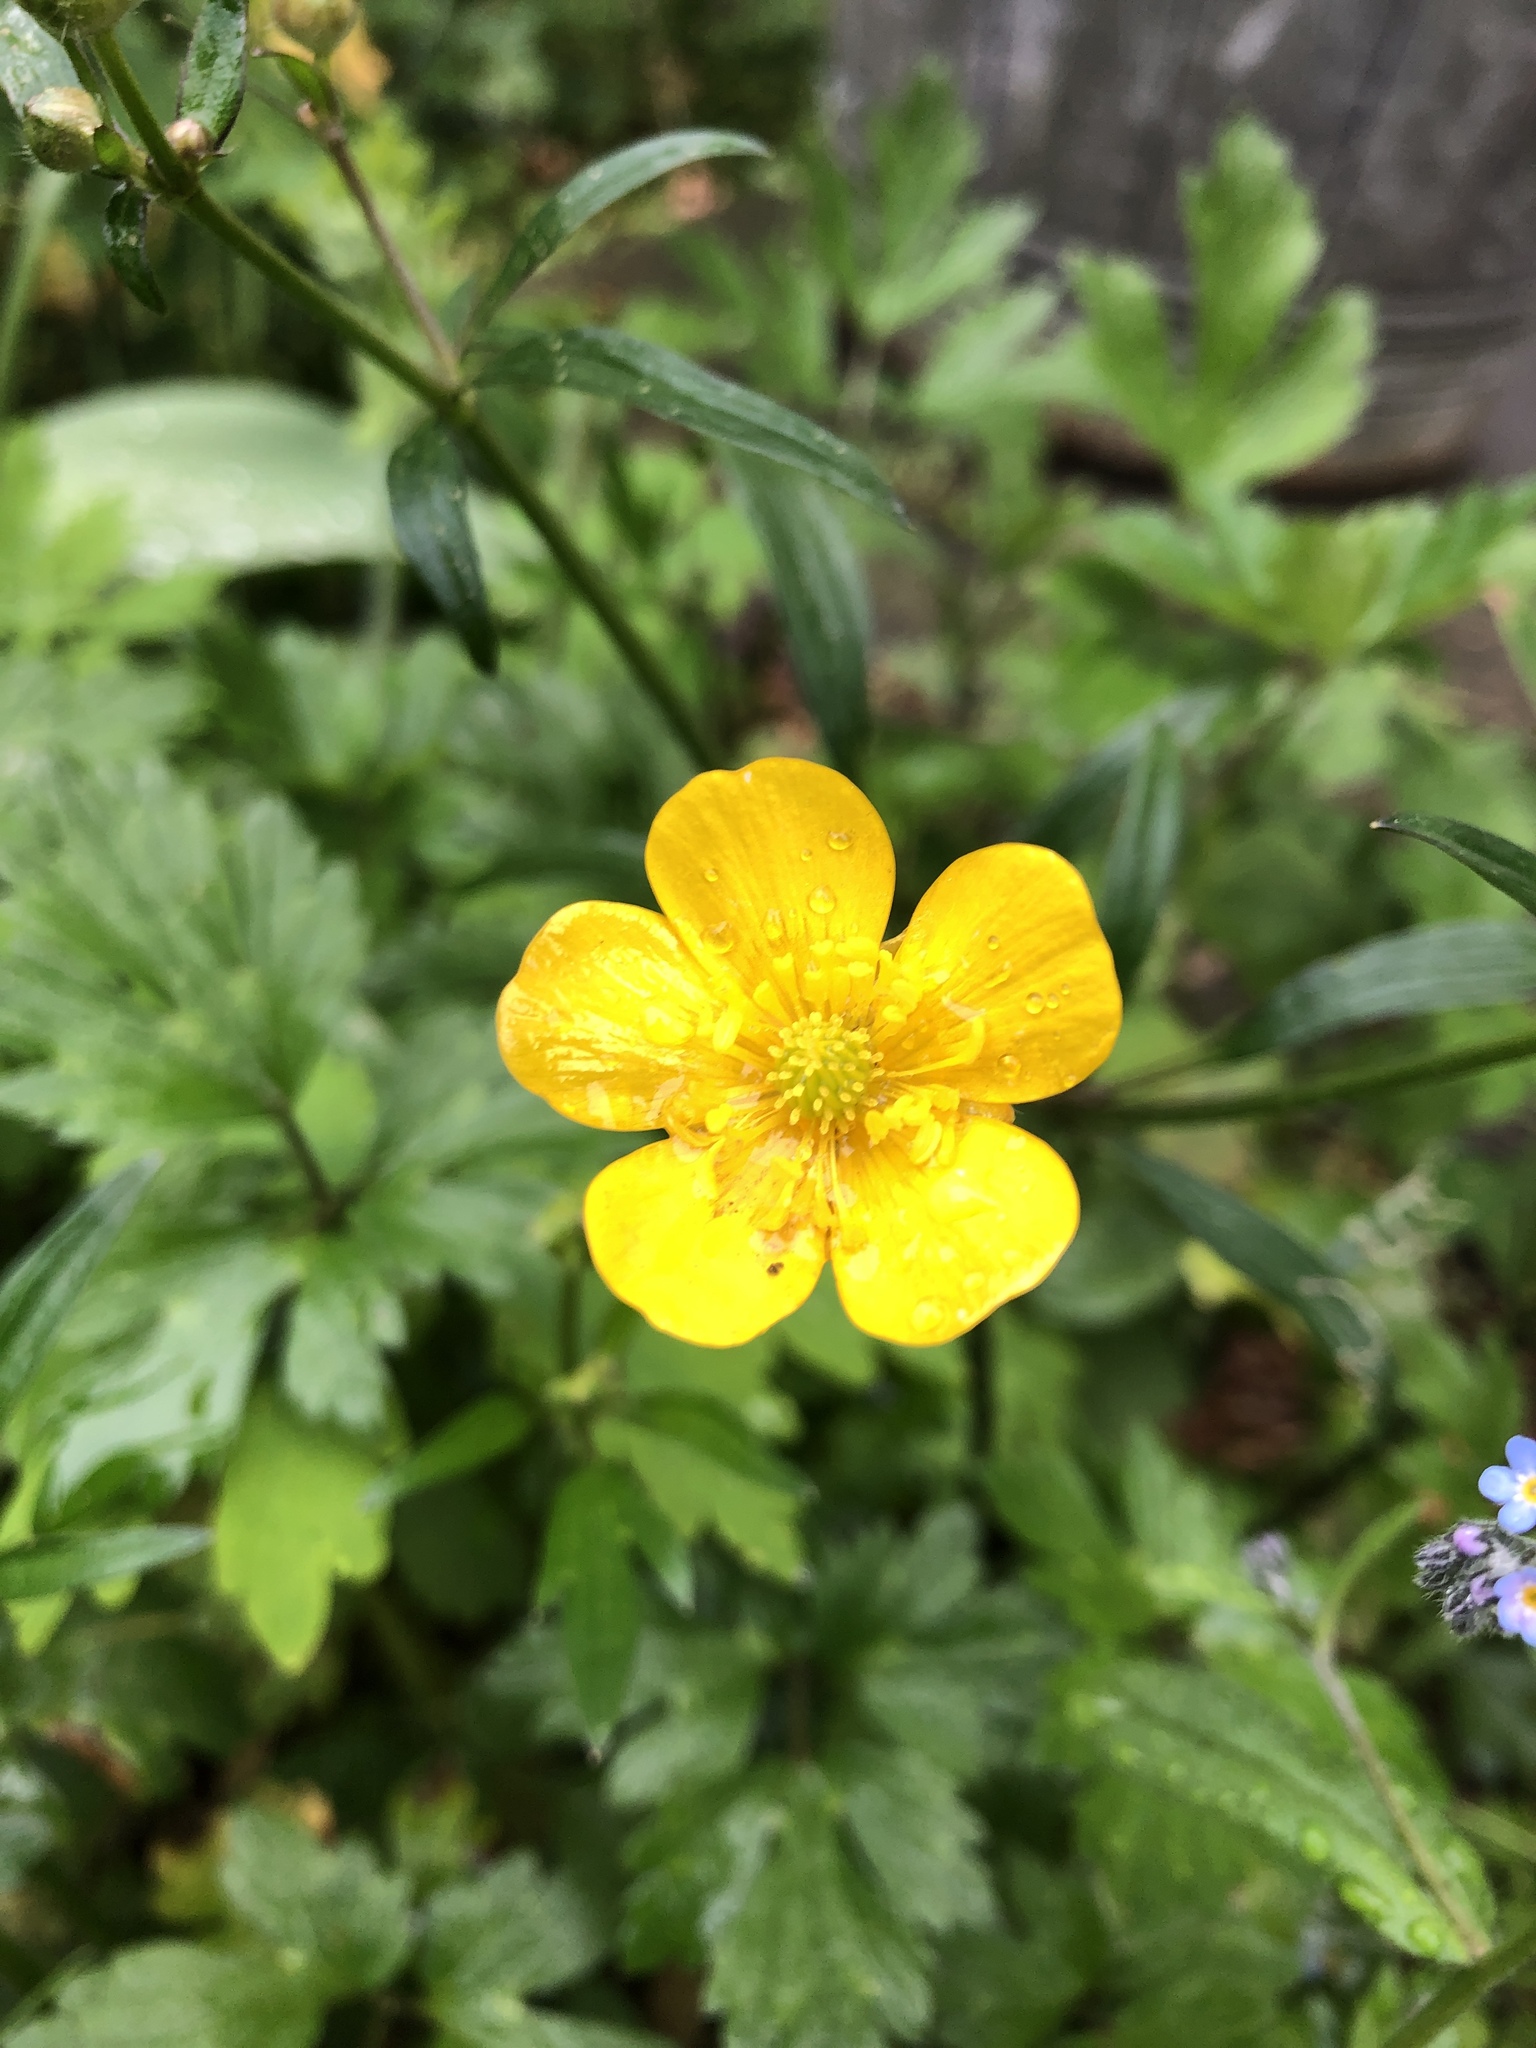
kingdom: Plantae
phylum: Tracheophyta
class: Magnoliopsida
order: Ranunculales
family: Ranunculaceae
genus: Ranunculus
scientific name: Ranunculus repens
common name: Creeping buttercup
